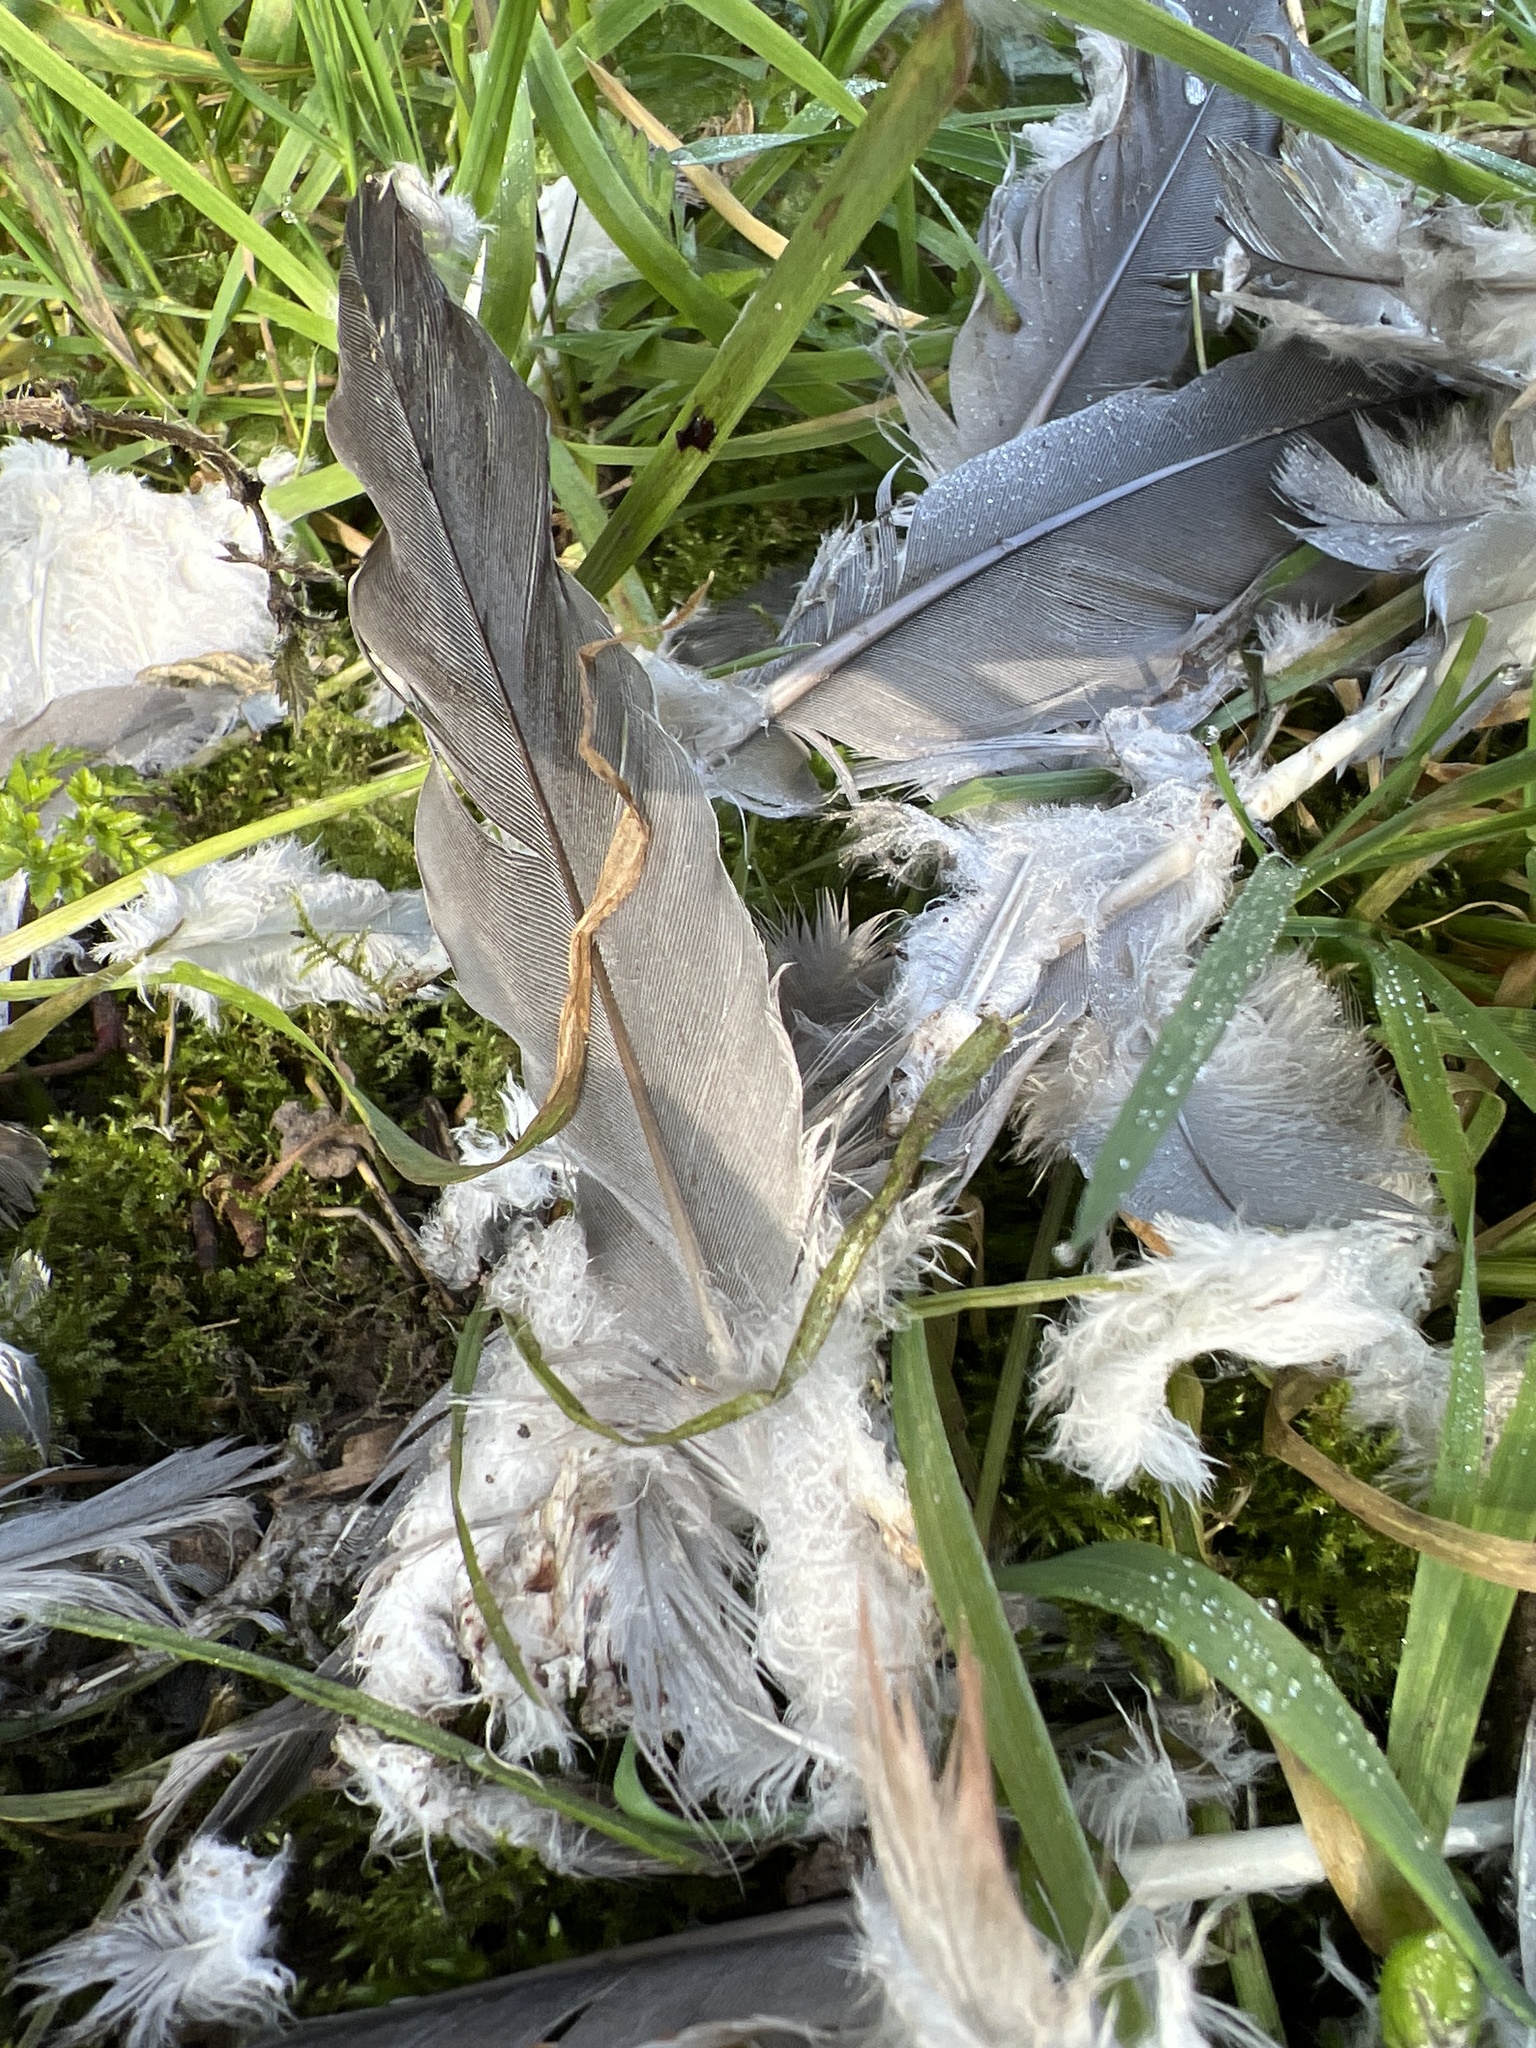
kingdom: Animalia
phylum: Chordata
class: Aves
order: Columbiformes
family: Columbidae
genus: Columba
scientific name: Columba palumbus
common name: Common wood pigeon
